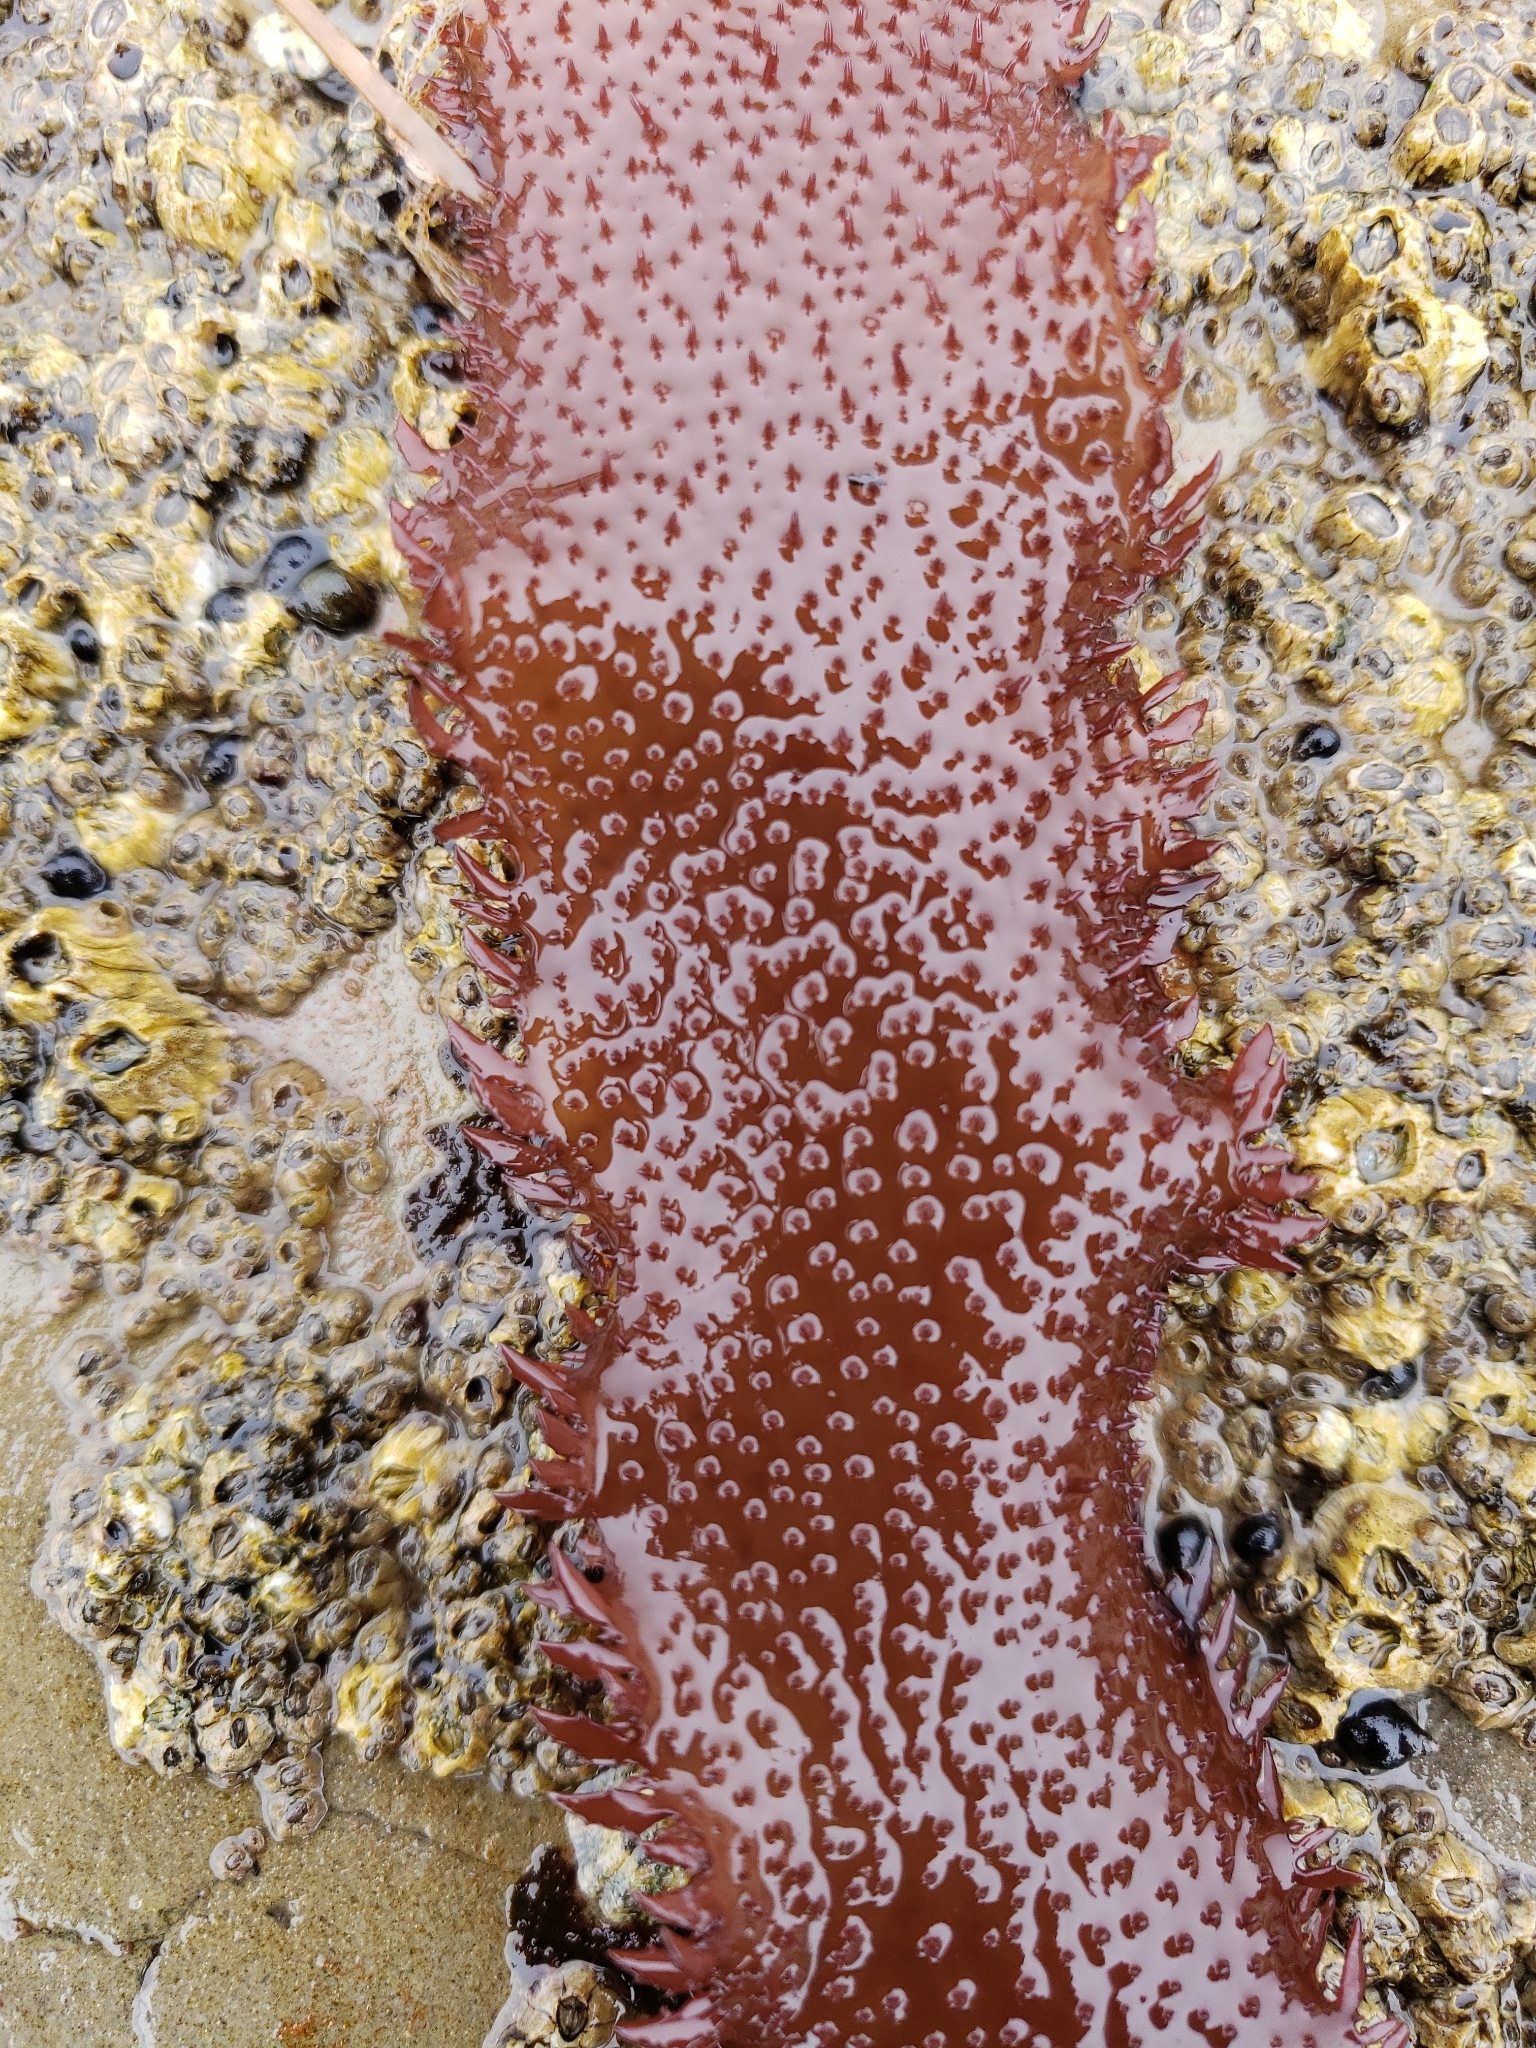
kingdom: Plantae
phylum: Rhodophyta
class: Florideophyceae
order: Gigartinales
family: Gigartinaceae
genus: Chondracanthus
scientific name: Chondracanthus exasperatus
